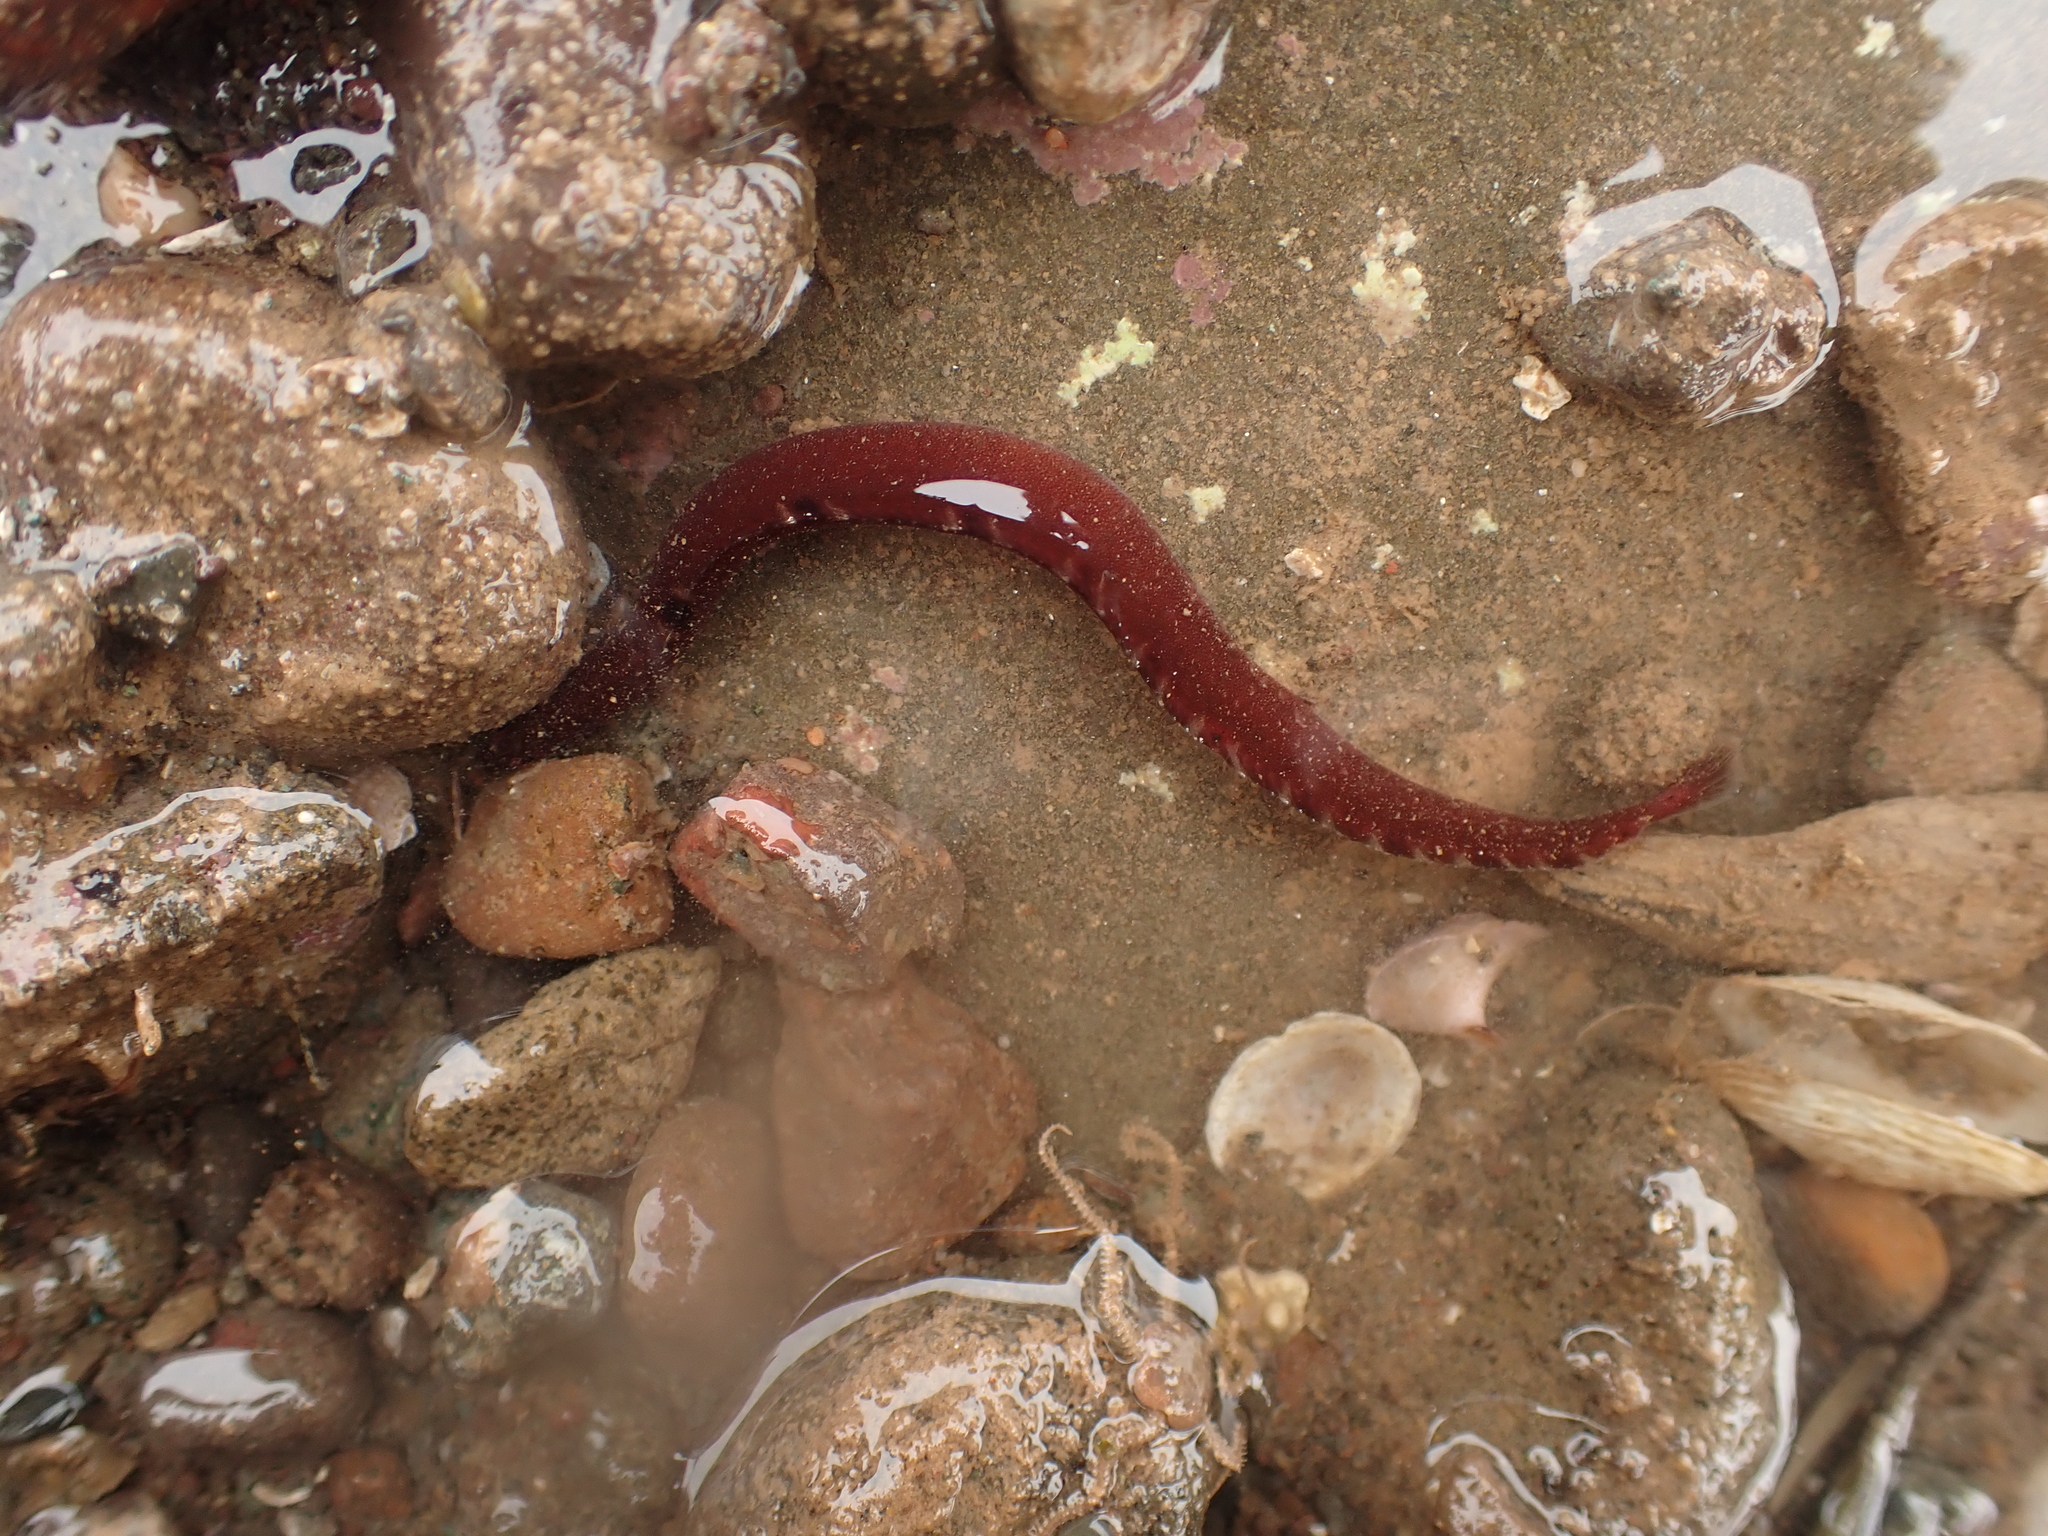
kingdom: Animalia
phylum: Chordata
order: Perciformes
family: Pholidae
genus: Pholis
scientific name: Pholis gunnellus
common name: Butterfish
